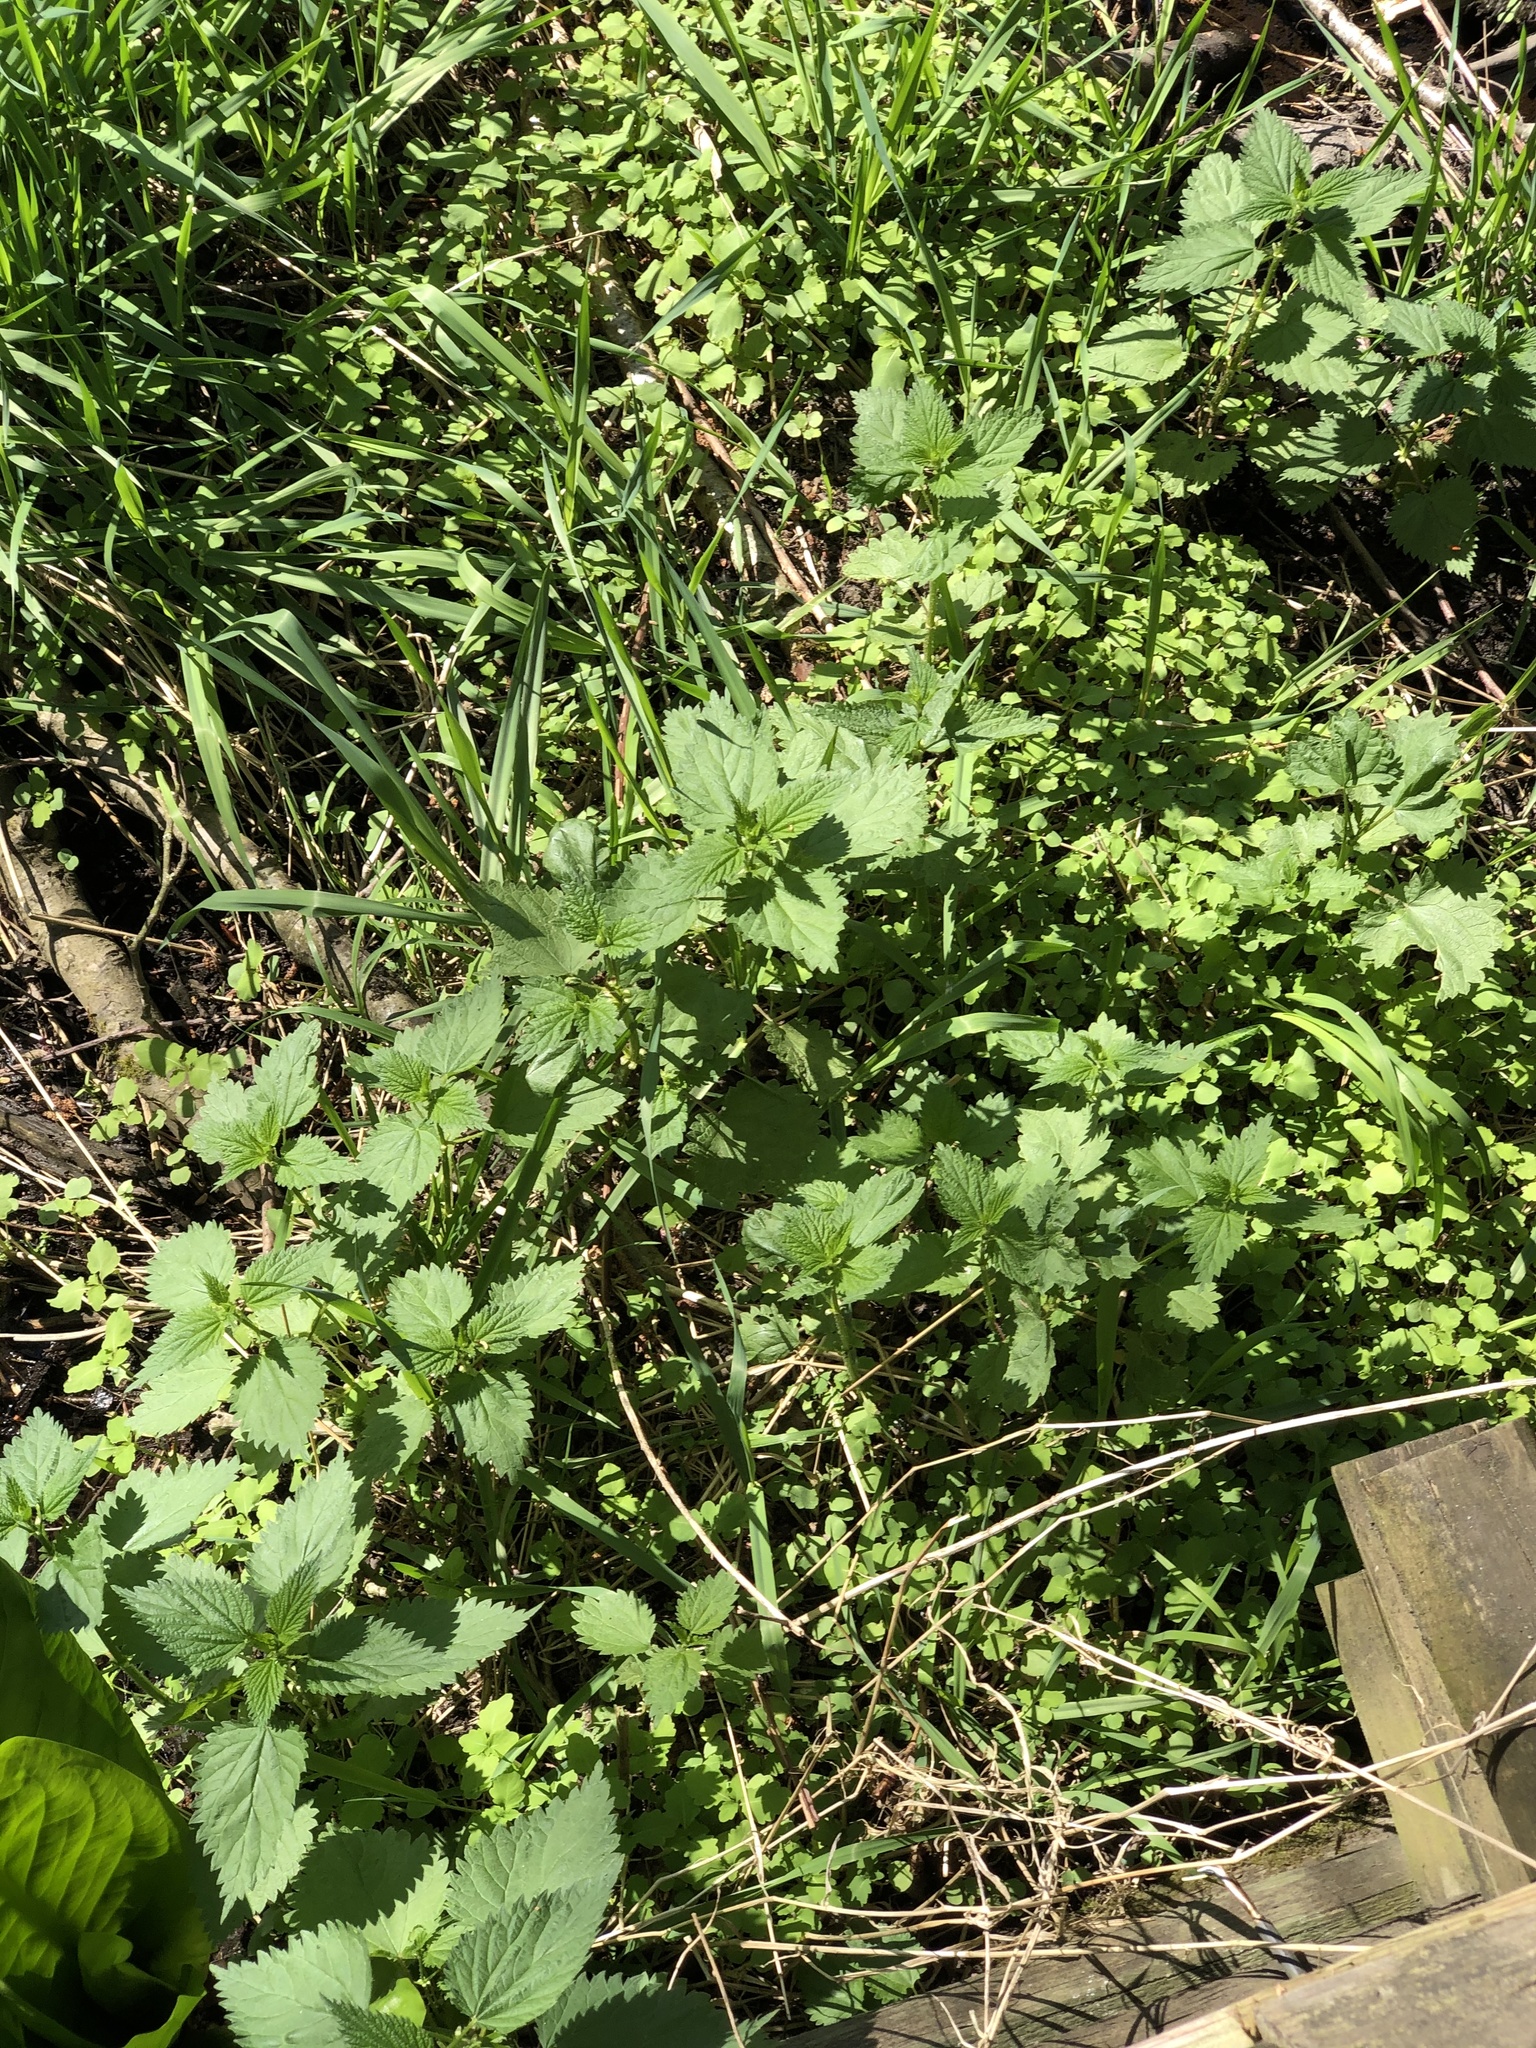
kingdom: Plantae
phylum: Tracheophyta
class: Magnoliopsida
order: Rosales
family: Urticaceae
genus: Urtica
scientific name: Urtica dioica
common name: Common nettle
